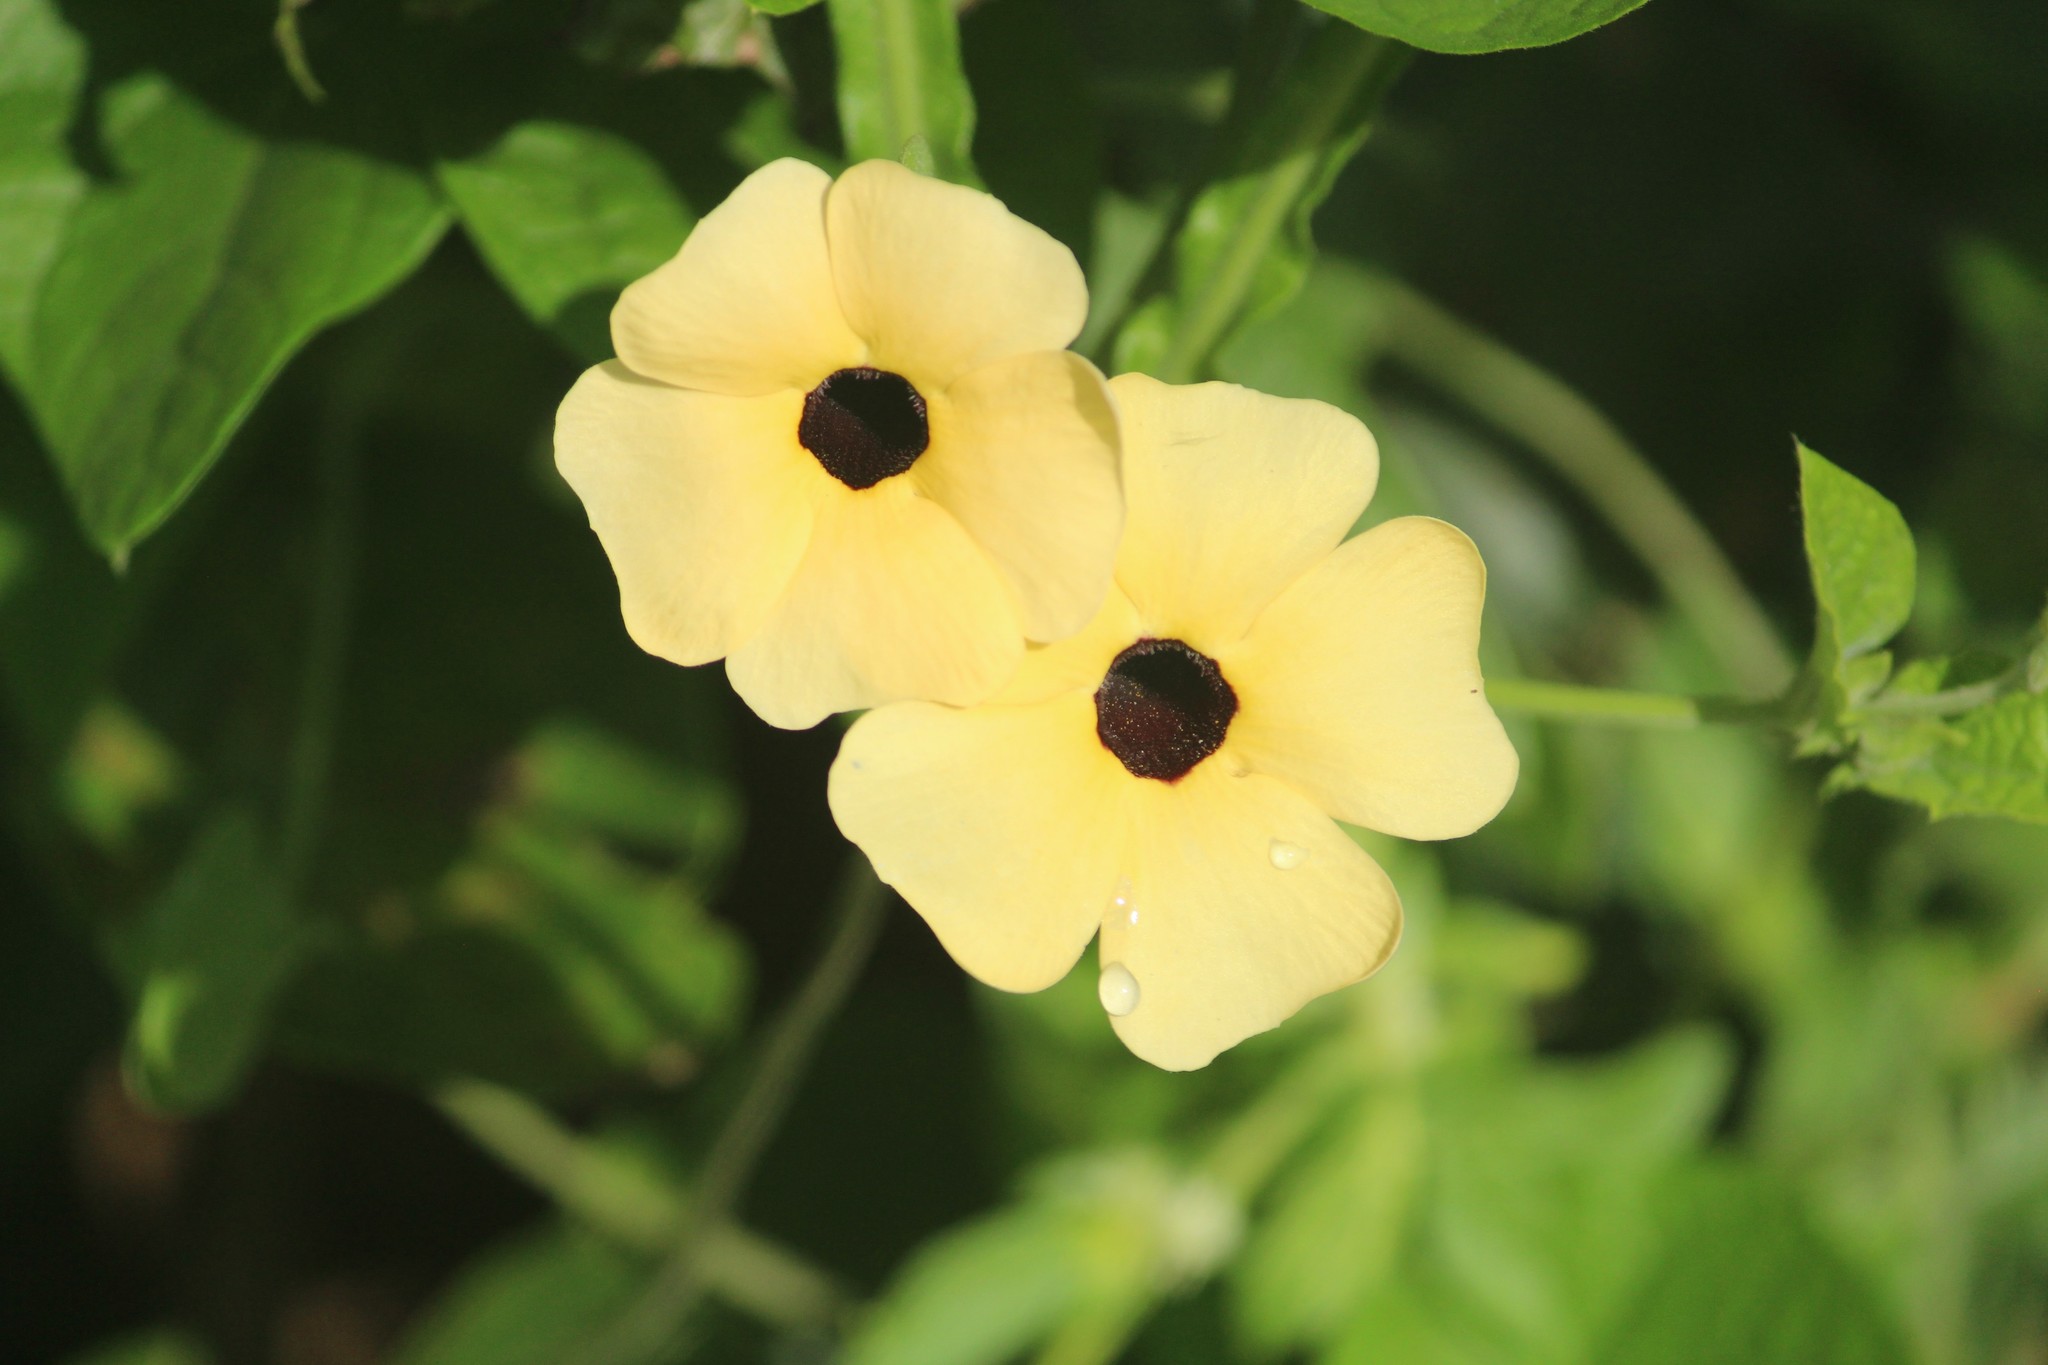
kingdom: Plantae
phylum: Tracheophyta
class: Magnoliopsida
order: Lamiales
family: Acanthaceae
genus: Thunbergia
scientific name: Thunbergia alata
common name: Blackeyed susan vine
